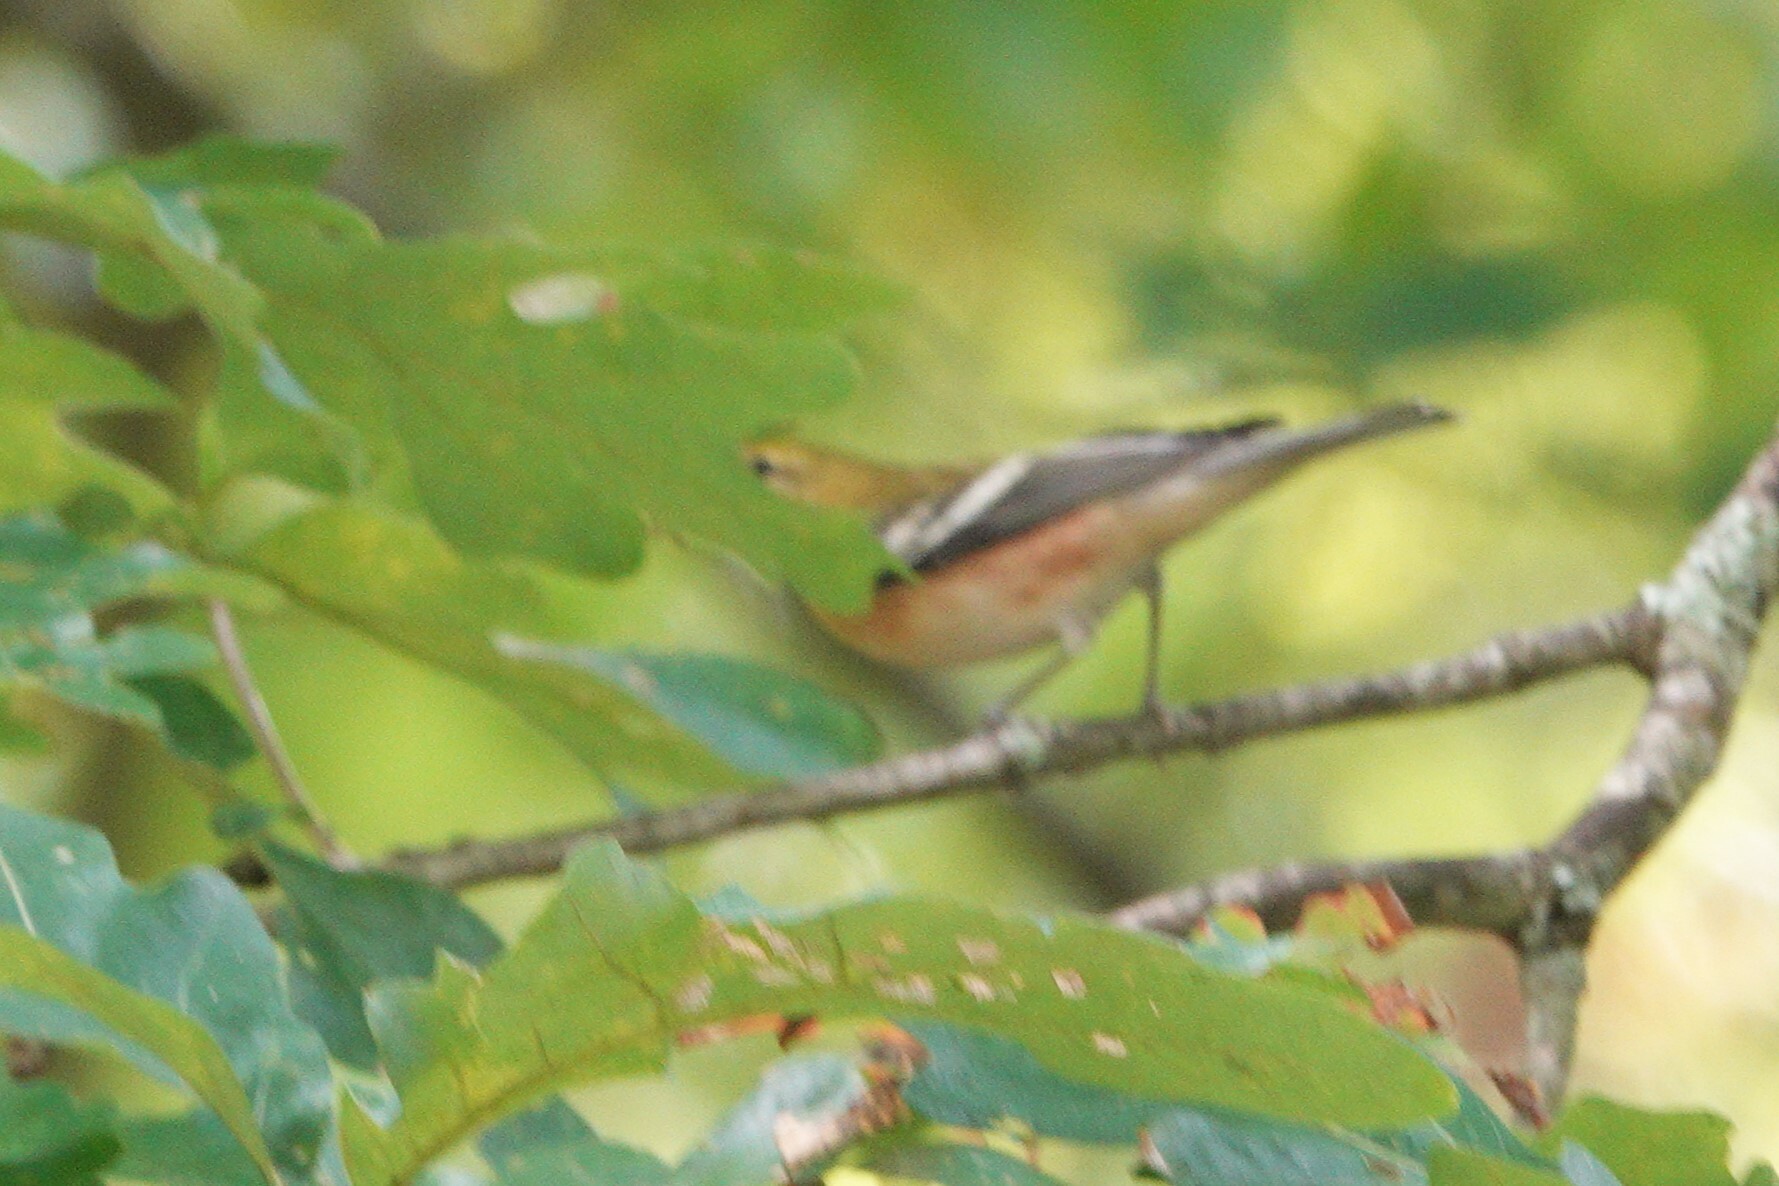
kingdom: Animalia
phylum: Chordata
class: Aves
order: Passeriformes
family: Parulidae
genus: Setophaga
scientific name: Setophaga castanea
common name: Bay-breasted warbler
